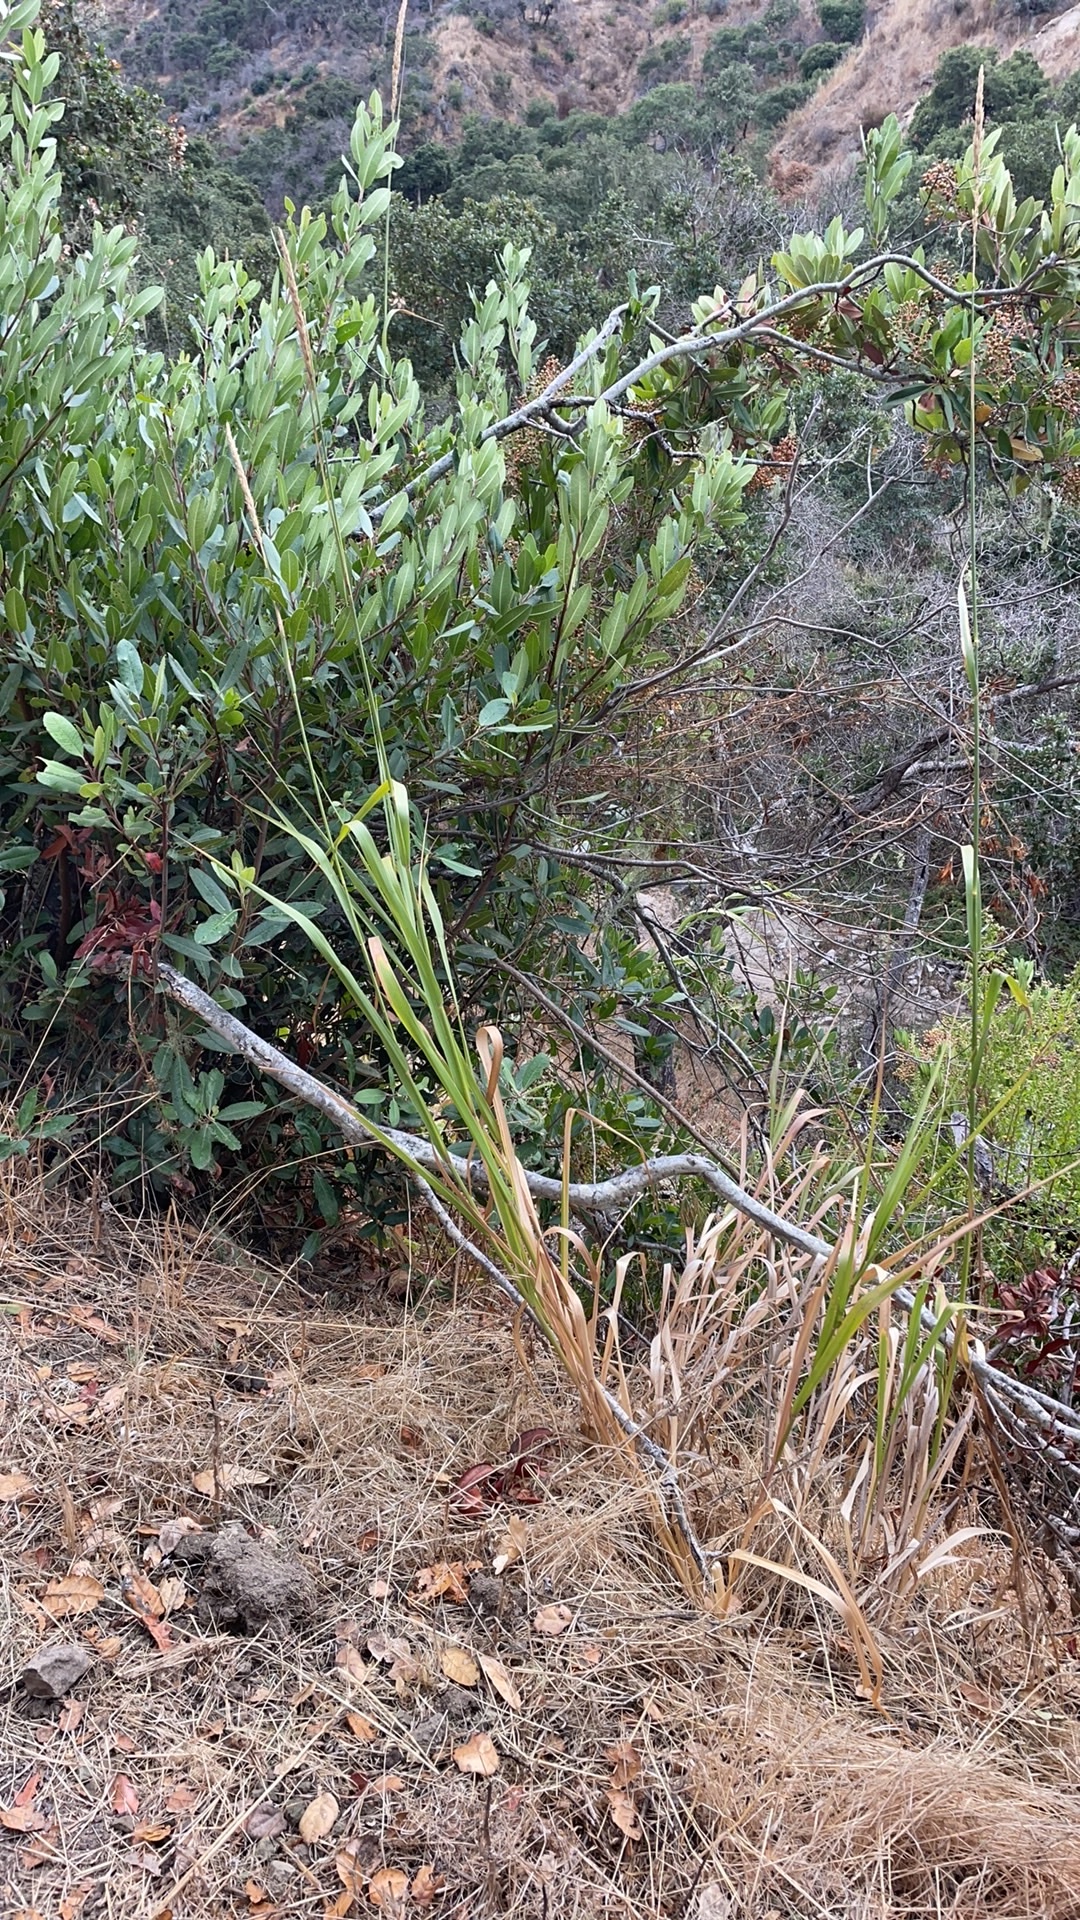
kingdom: Plantae
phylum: Tracheophyta
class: Liliopsida
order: Poales
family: Poaceae
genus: Leymus
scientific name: Leymus condensatus
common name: Giant wild rye
